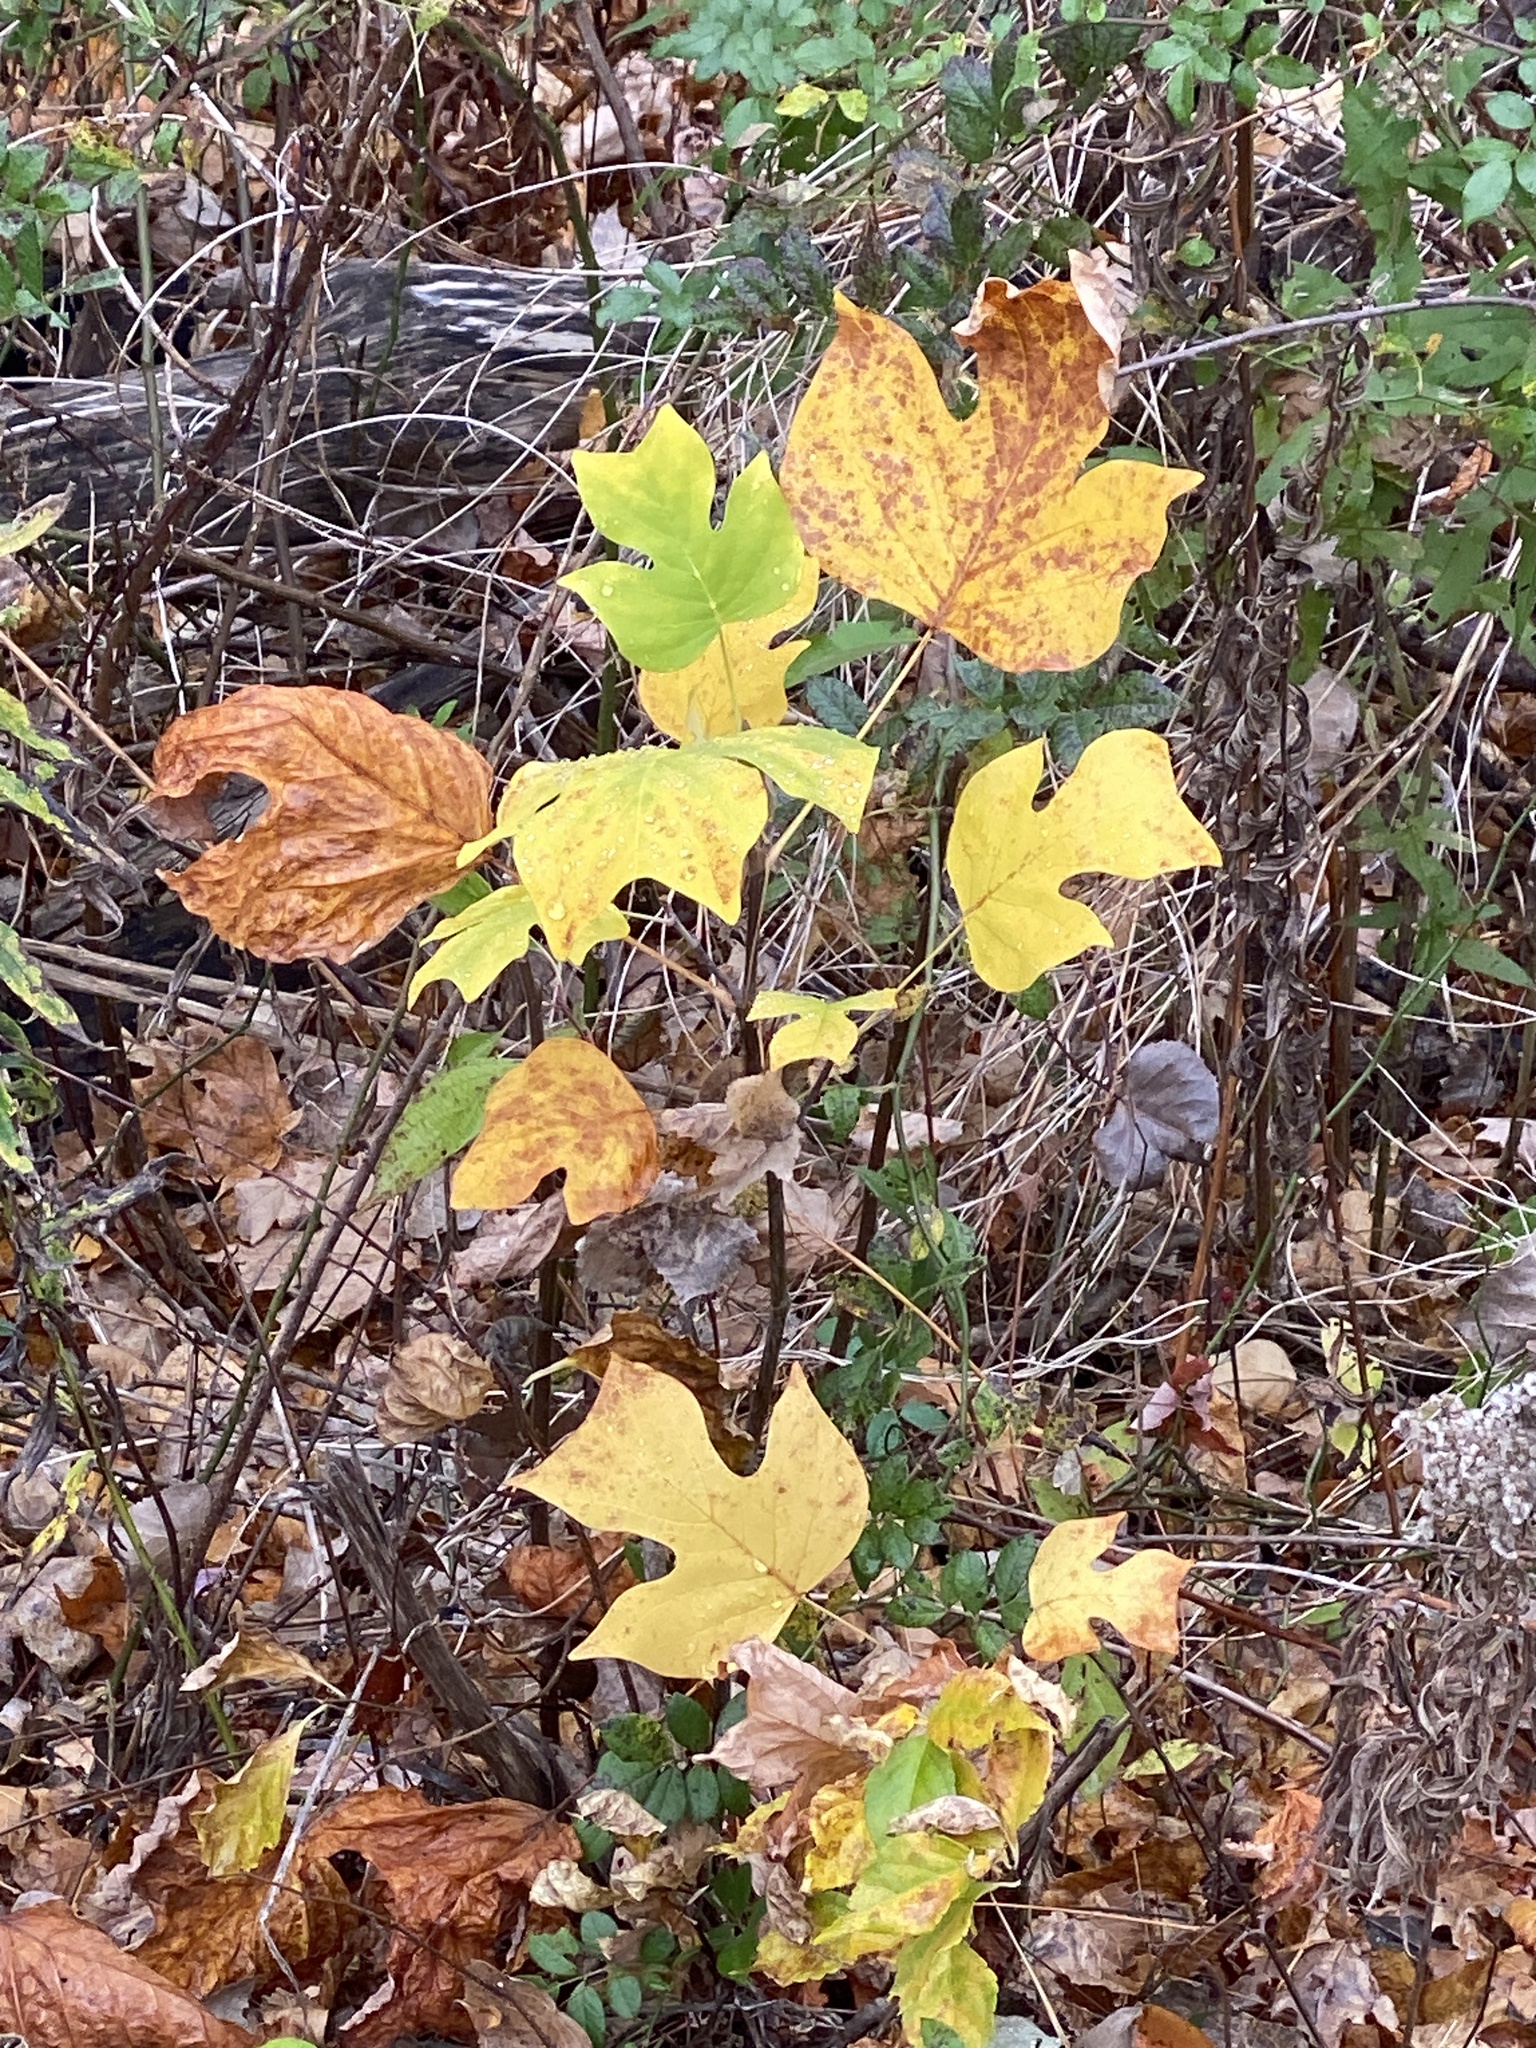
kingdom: Plantae
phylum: Tracheophyta
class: Magnoliopsida
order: Magnoliales
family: Magnoliaceae
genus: Liriodendron
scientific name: Liriodendron tulipifera
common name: Tulip tree
